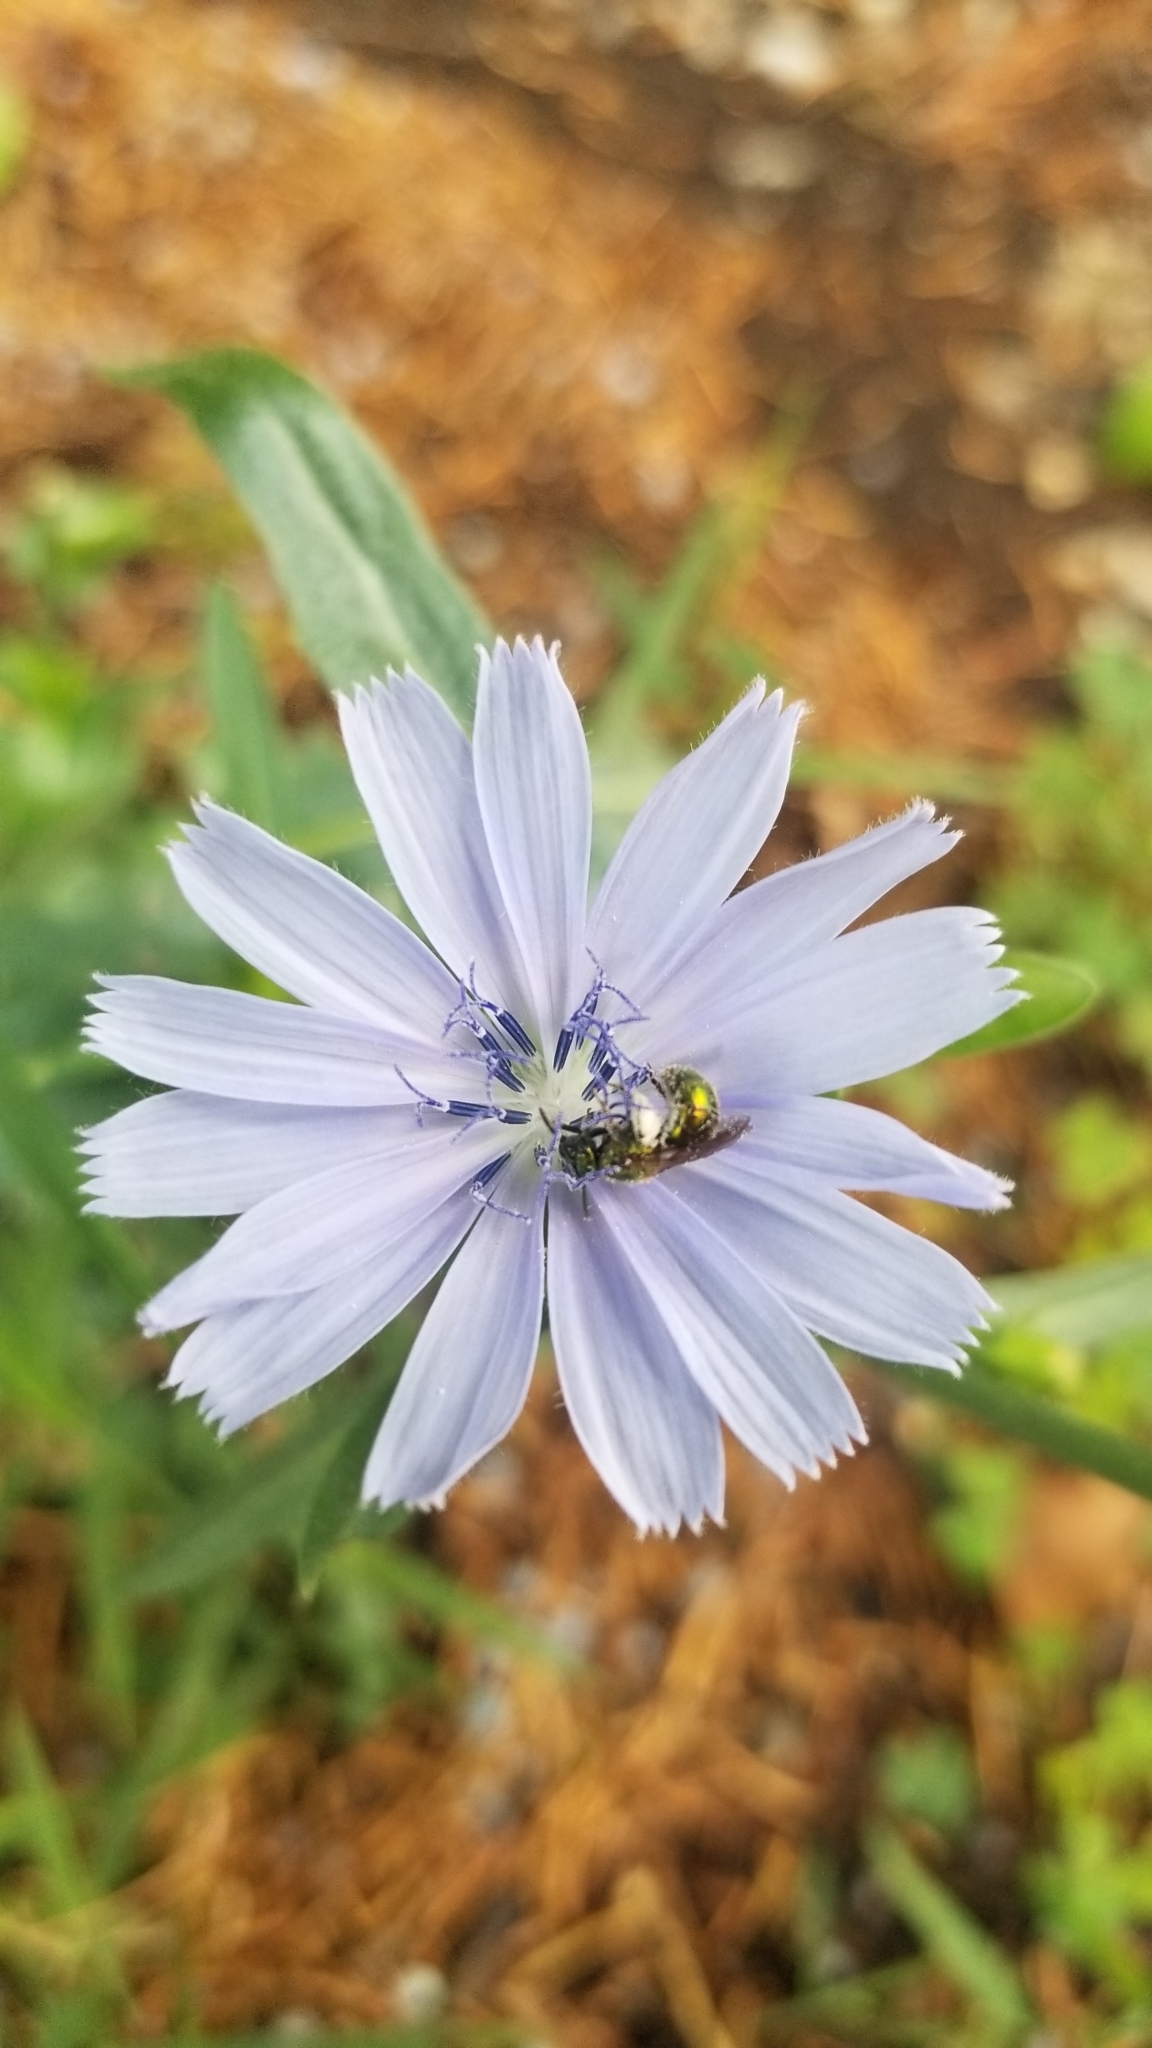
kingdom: Plantae
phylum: Tracheophyta
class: Magnoliopsida
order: Asterales
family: Asteraceae
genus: Cichorium
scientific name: Cichorium intybus
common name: Chicory
